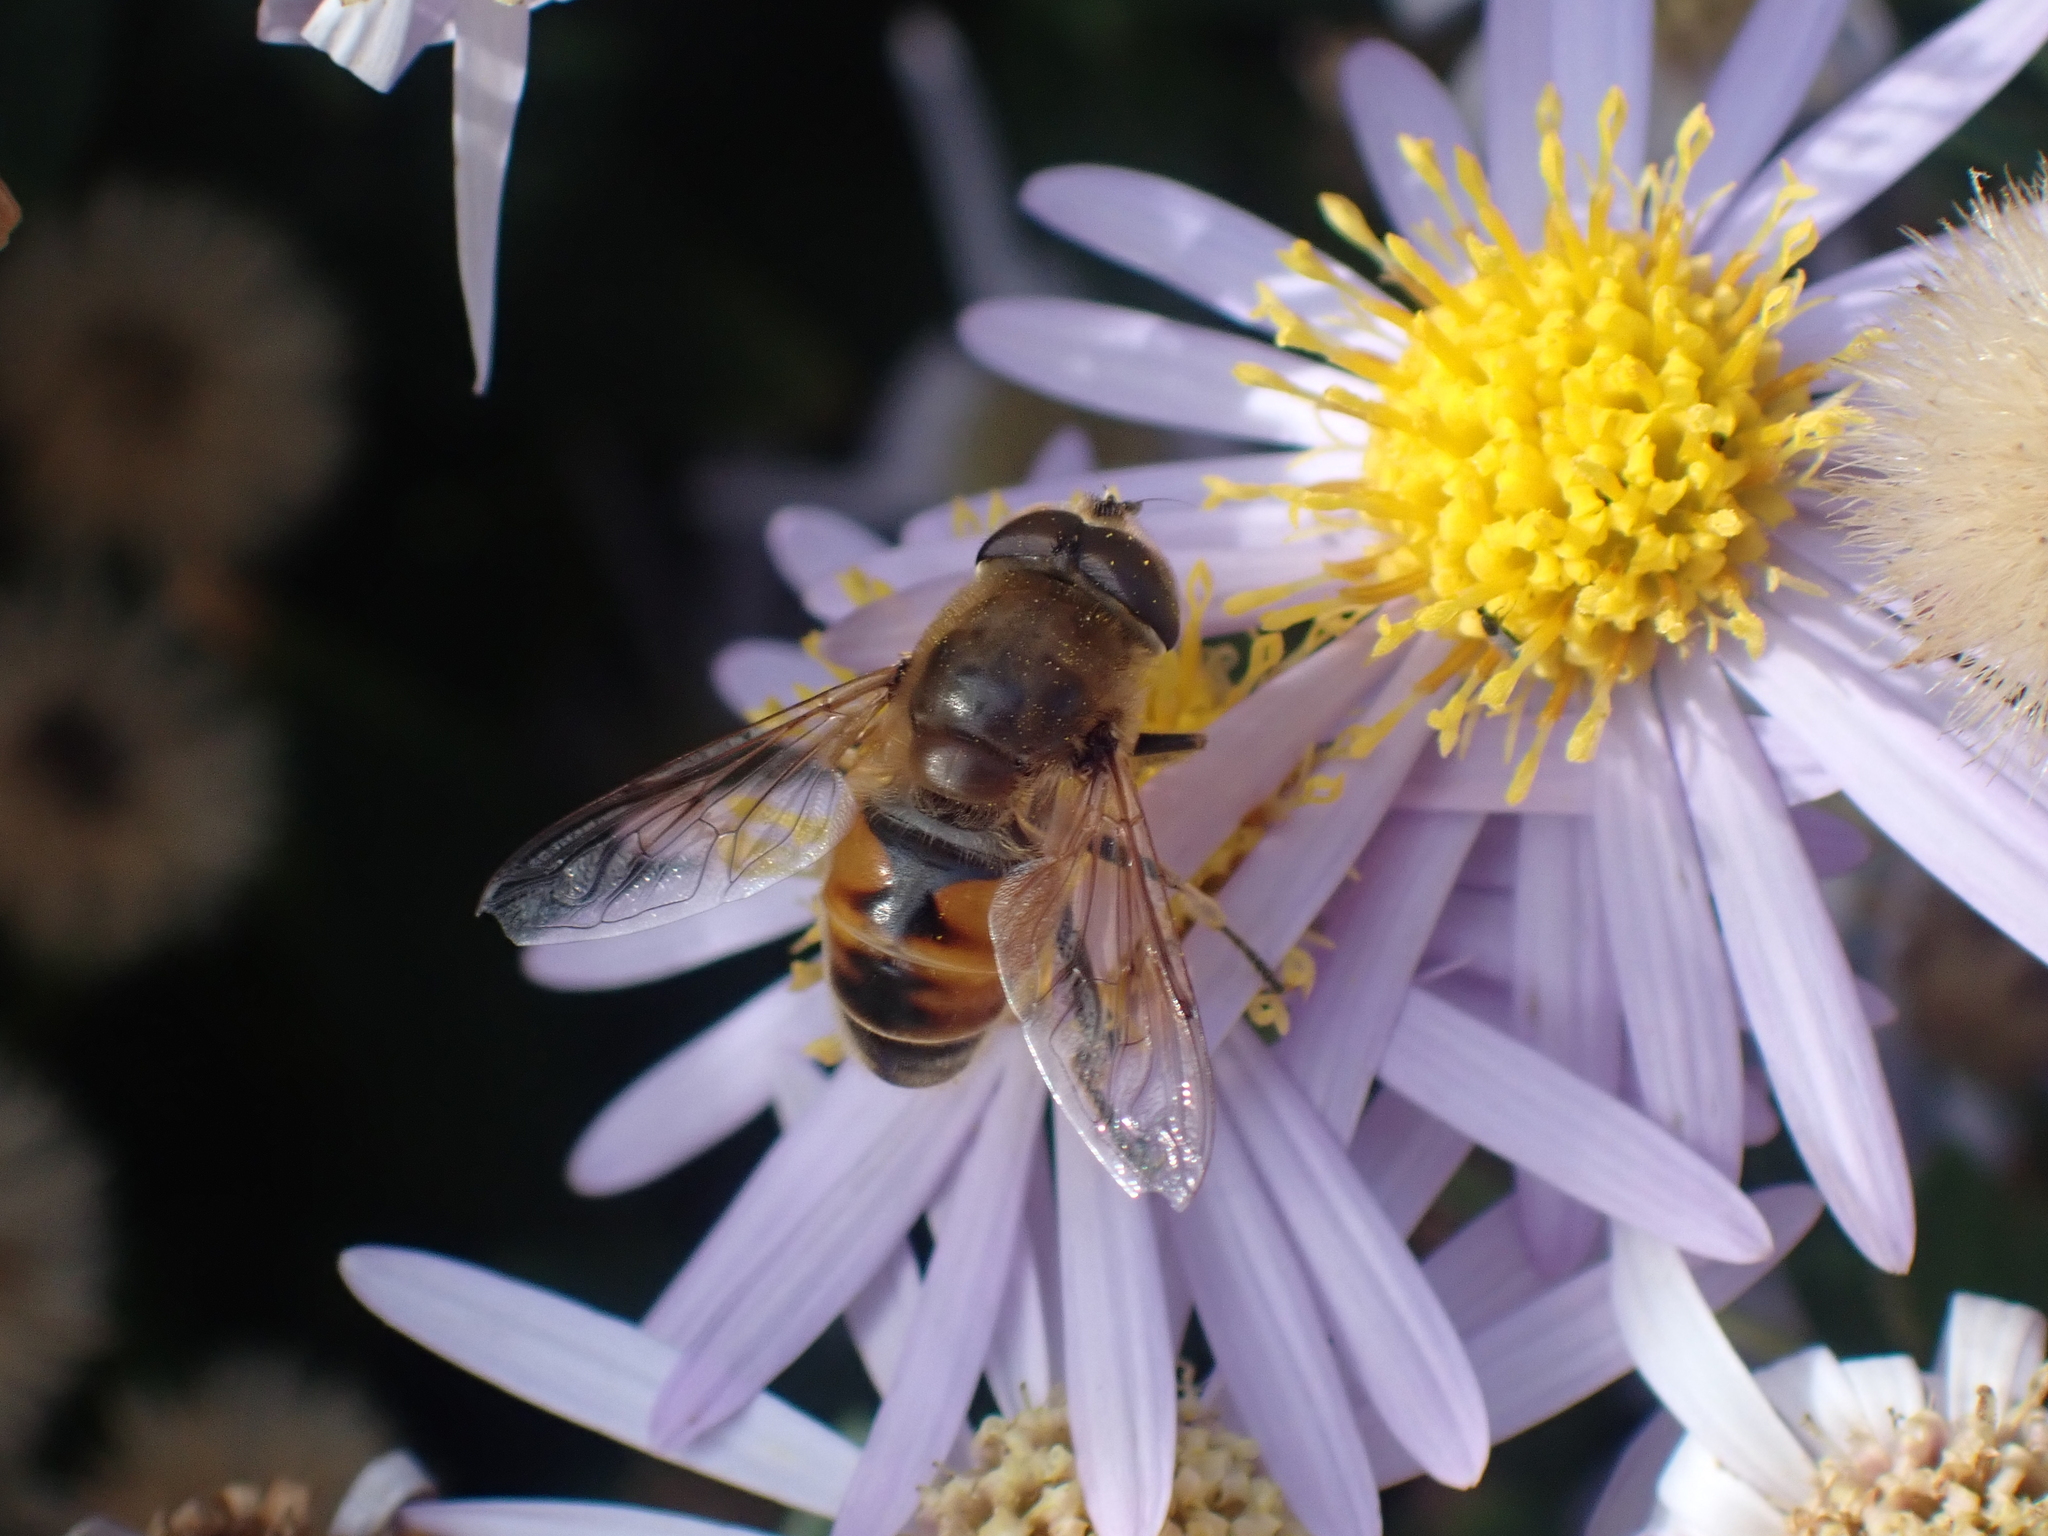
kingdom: Animalia
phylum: Arthropoda
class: Insecta
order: Diptera
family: Syrphidae
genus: Eristalis
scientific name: Eristalis tenax
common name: Drone fly
